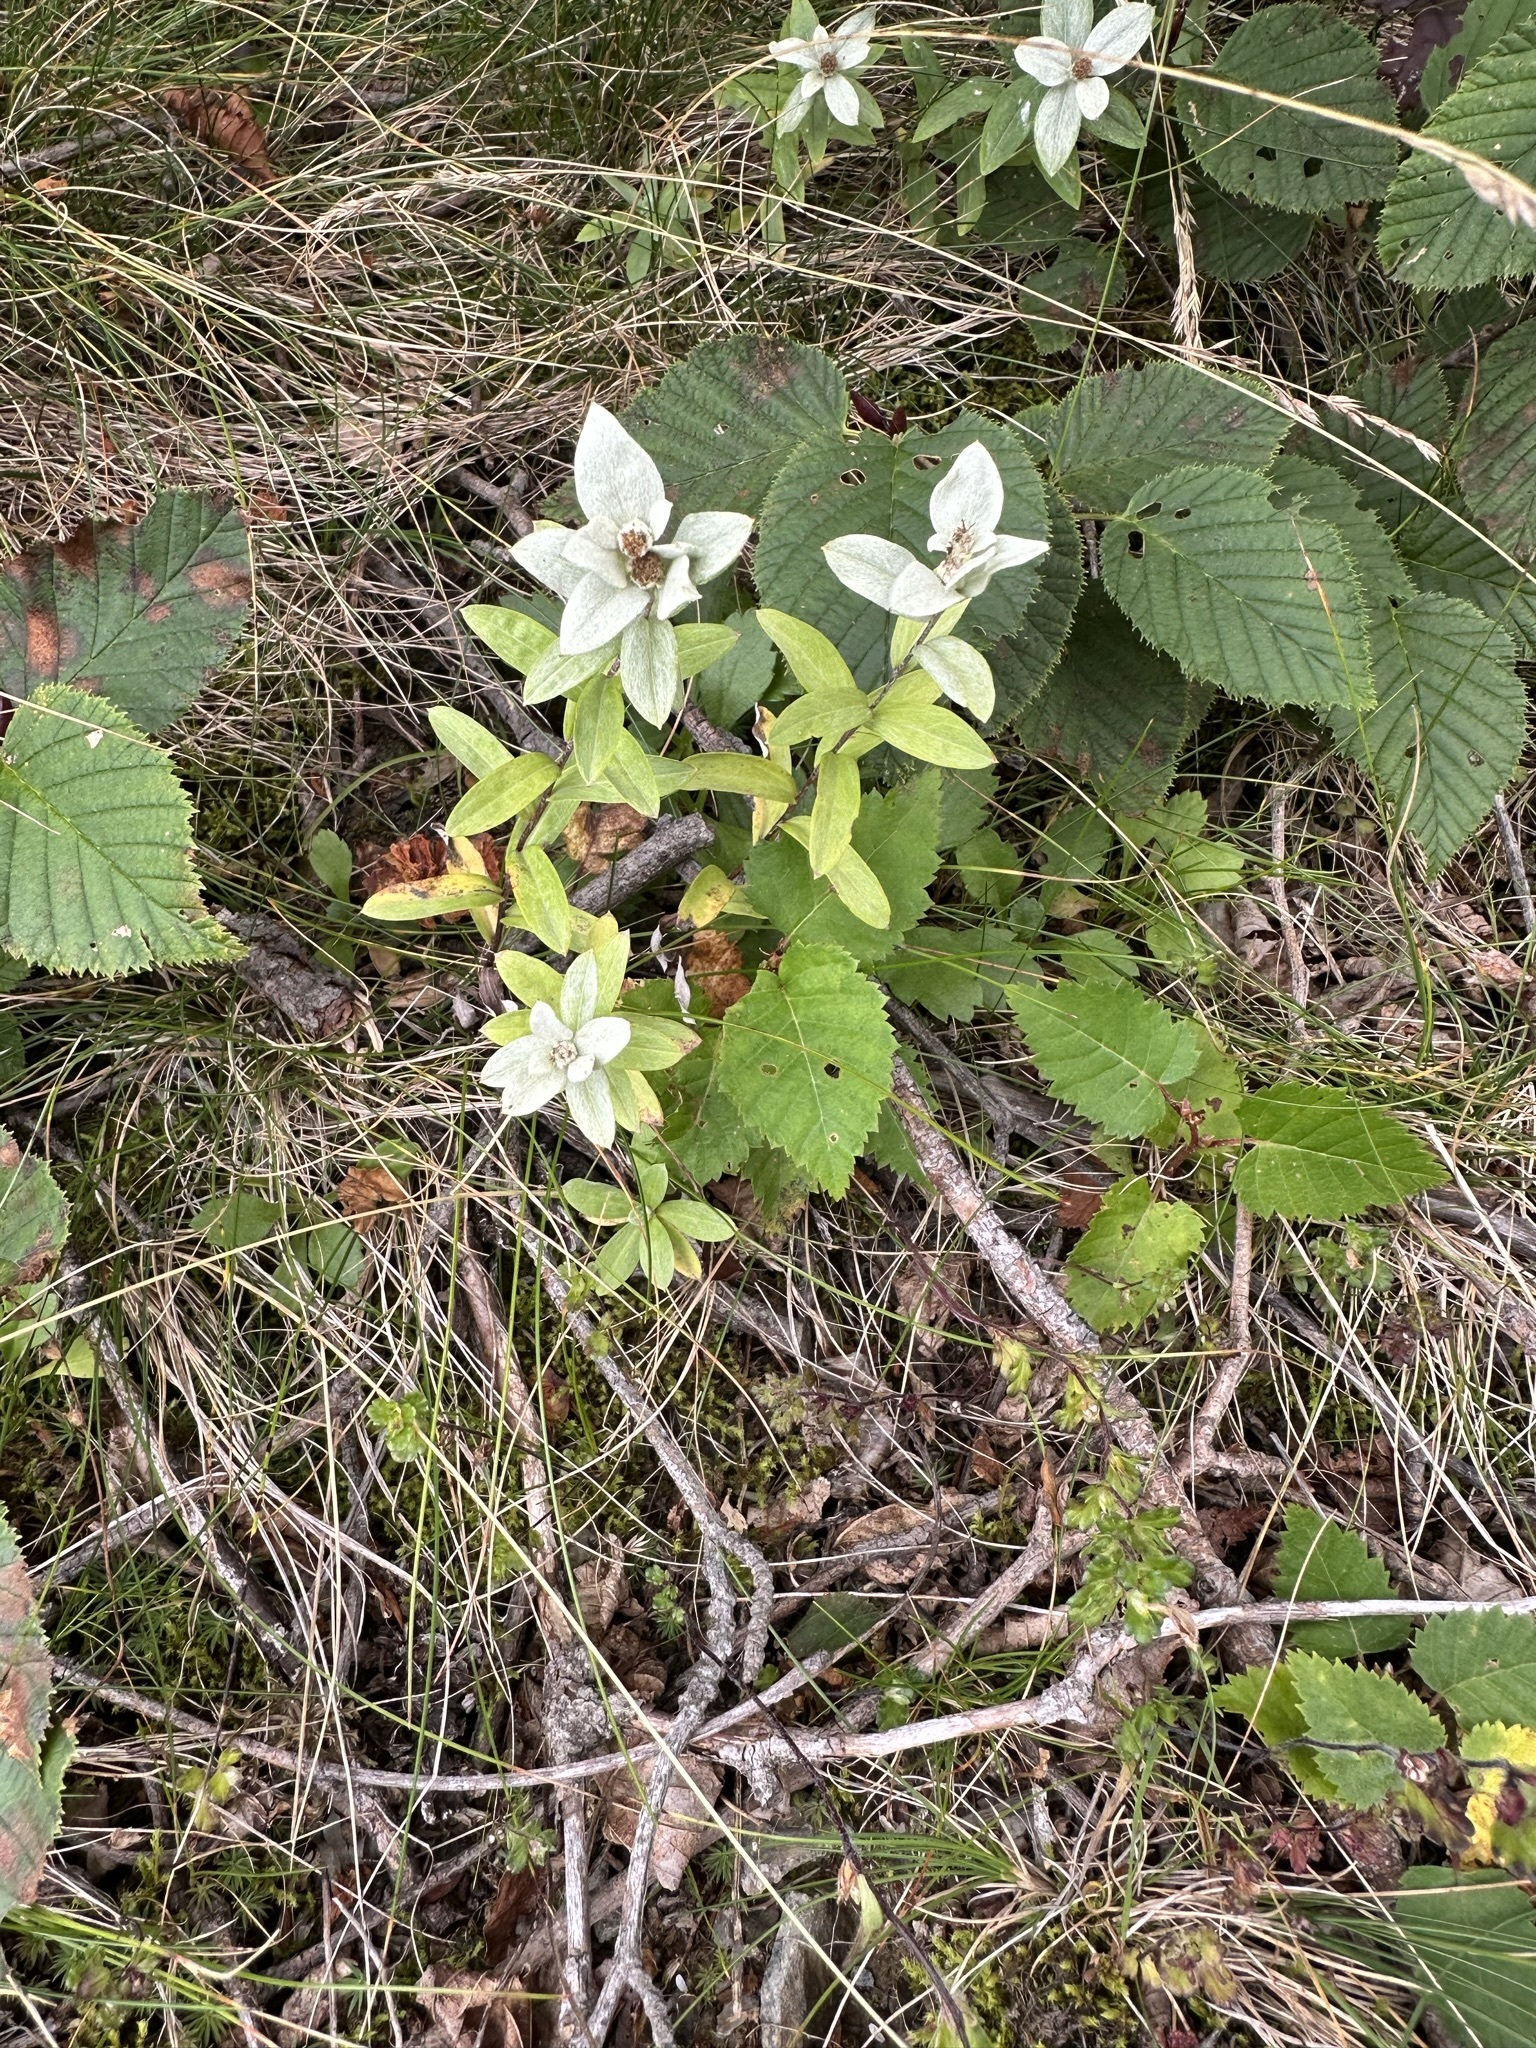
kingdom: Plantae
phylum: Tracheophyta
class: Magnoliopsida
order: Asterales
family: Asteraceae
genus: Leontopodium
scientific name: Leontopodium japonicum
